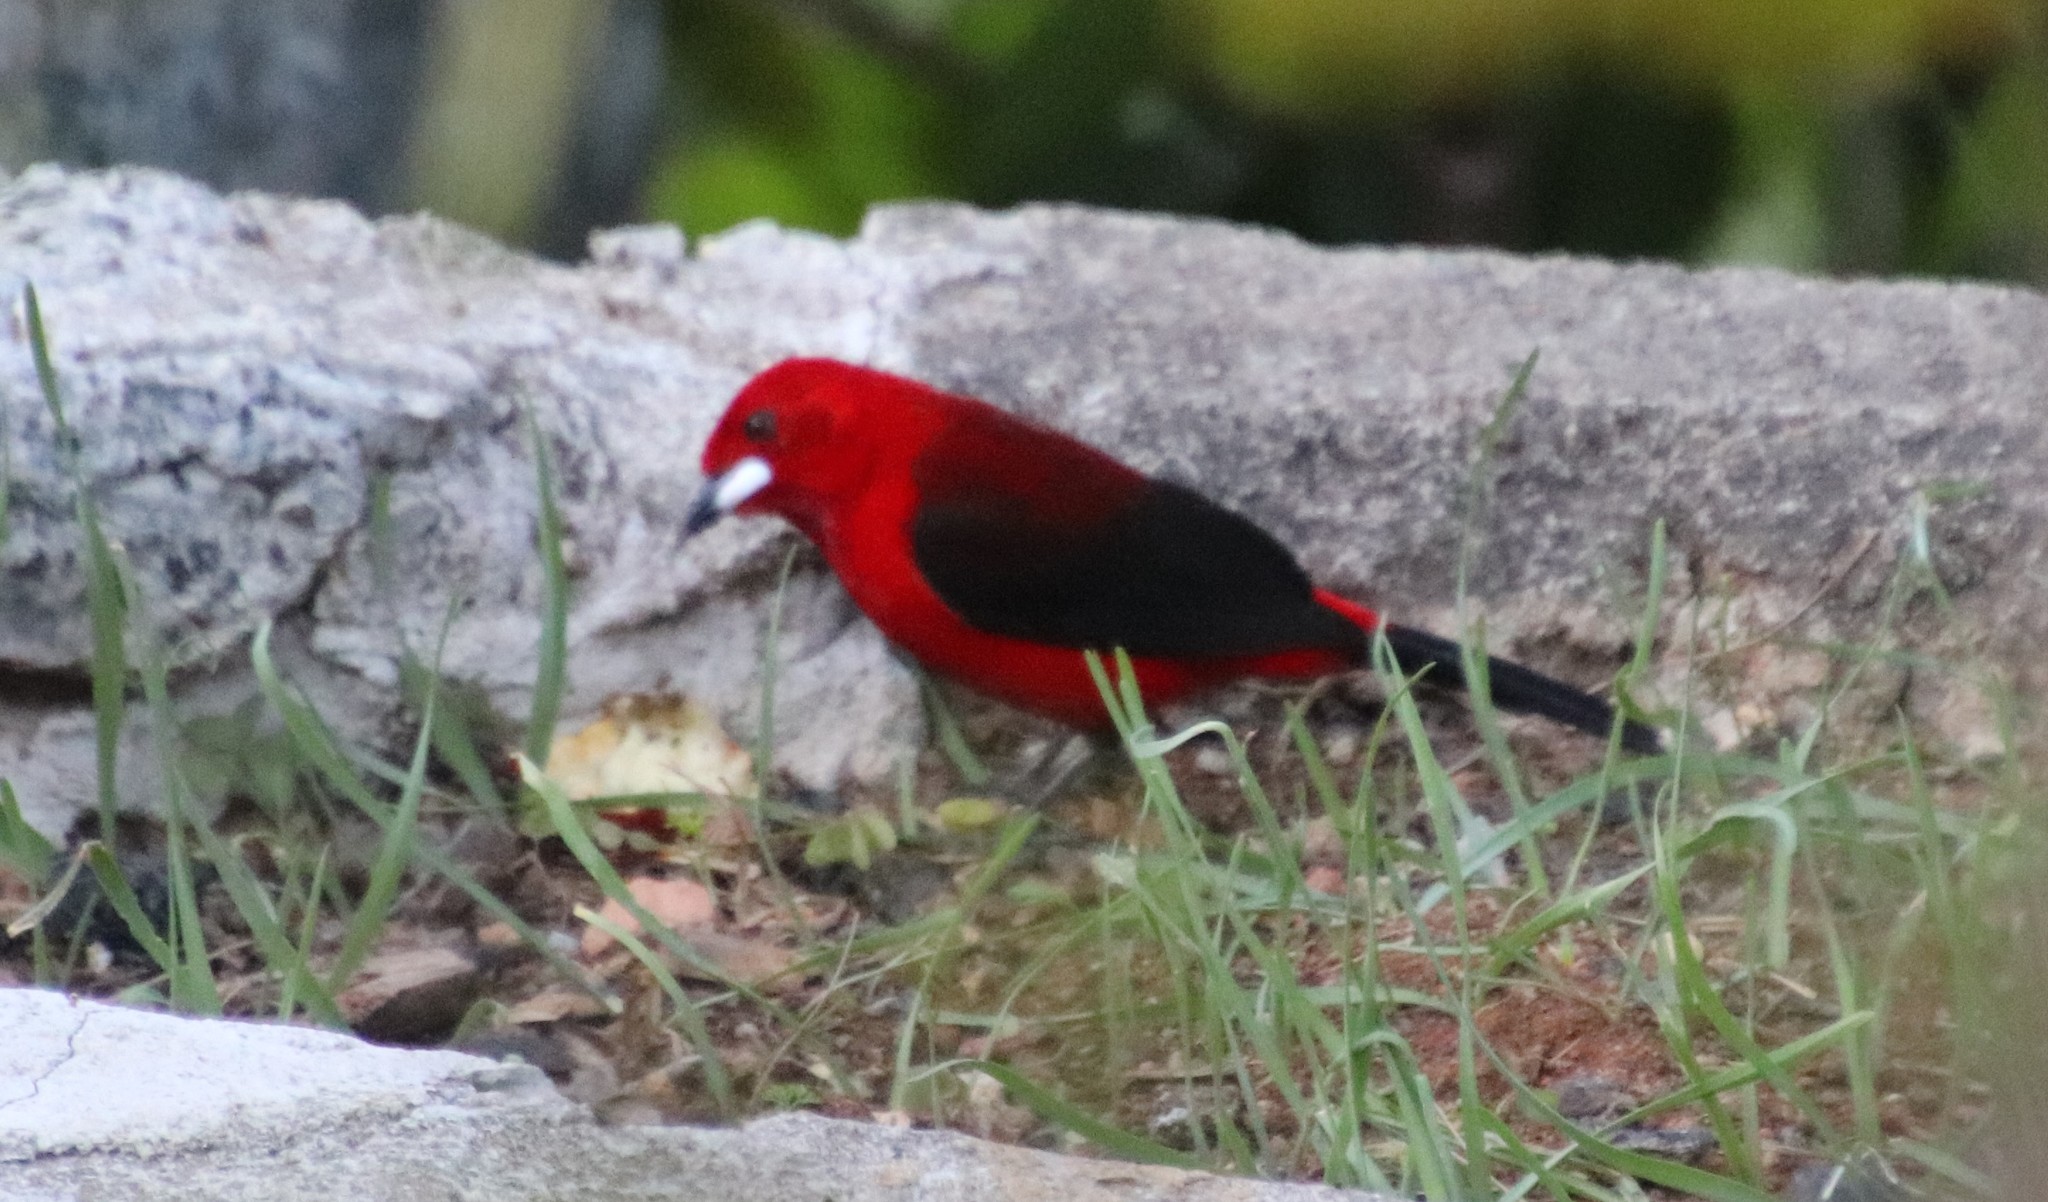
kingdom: Animalia
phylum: Chordata
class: Aves
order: Passeriformes
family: Thraupidae
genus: Ramphocelus
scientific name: Ramphocelus bresilia
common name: Brazilian tanager
